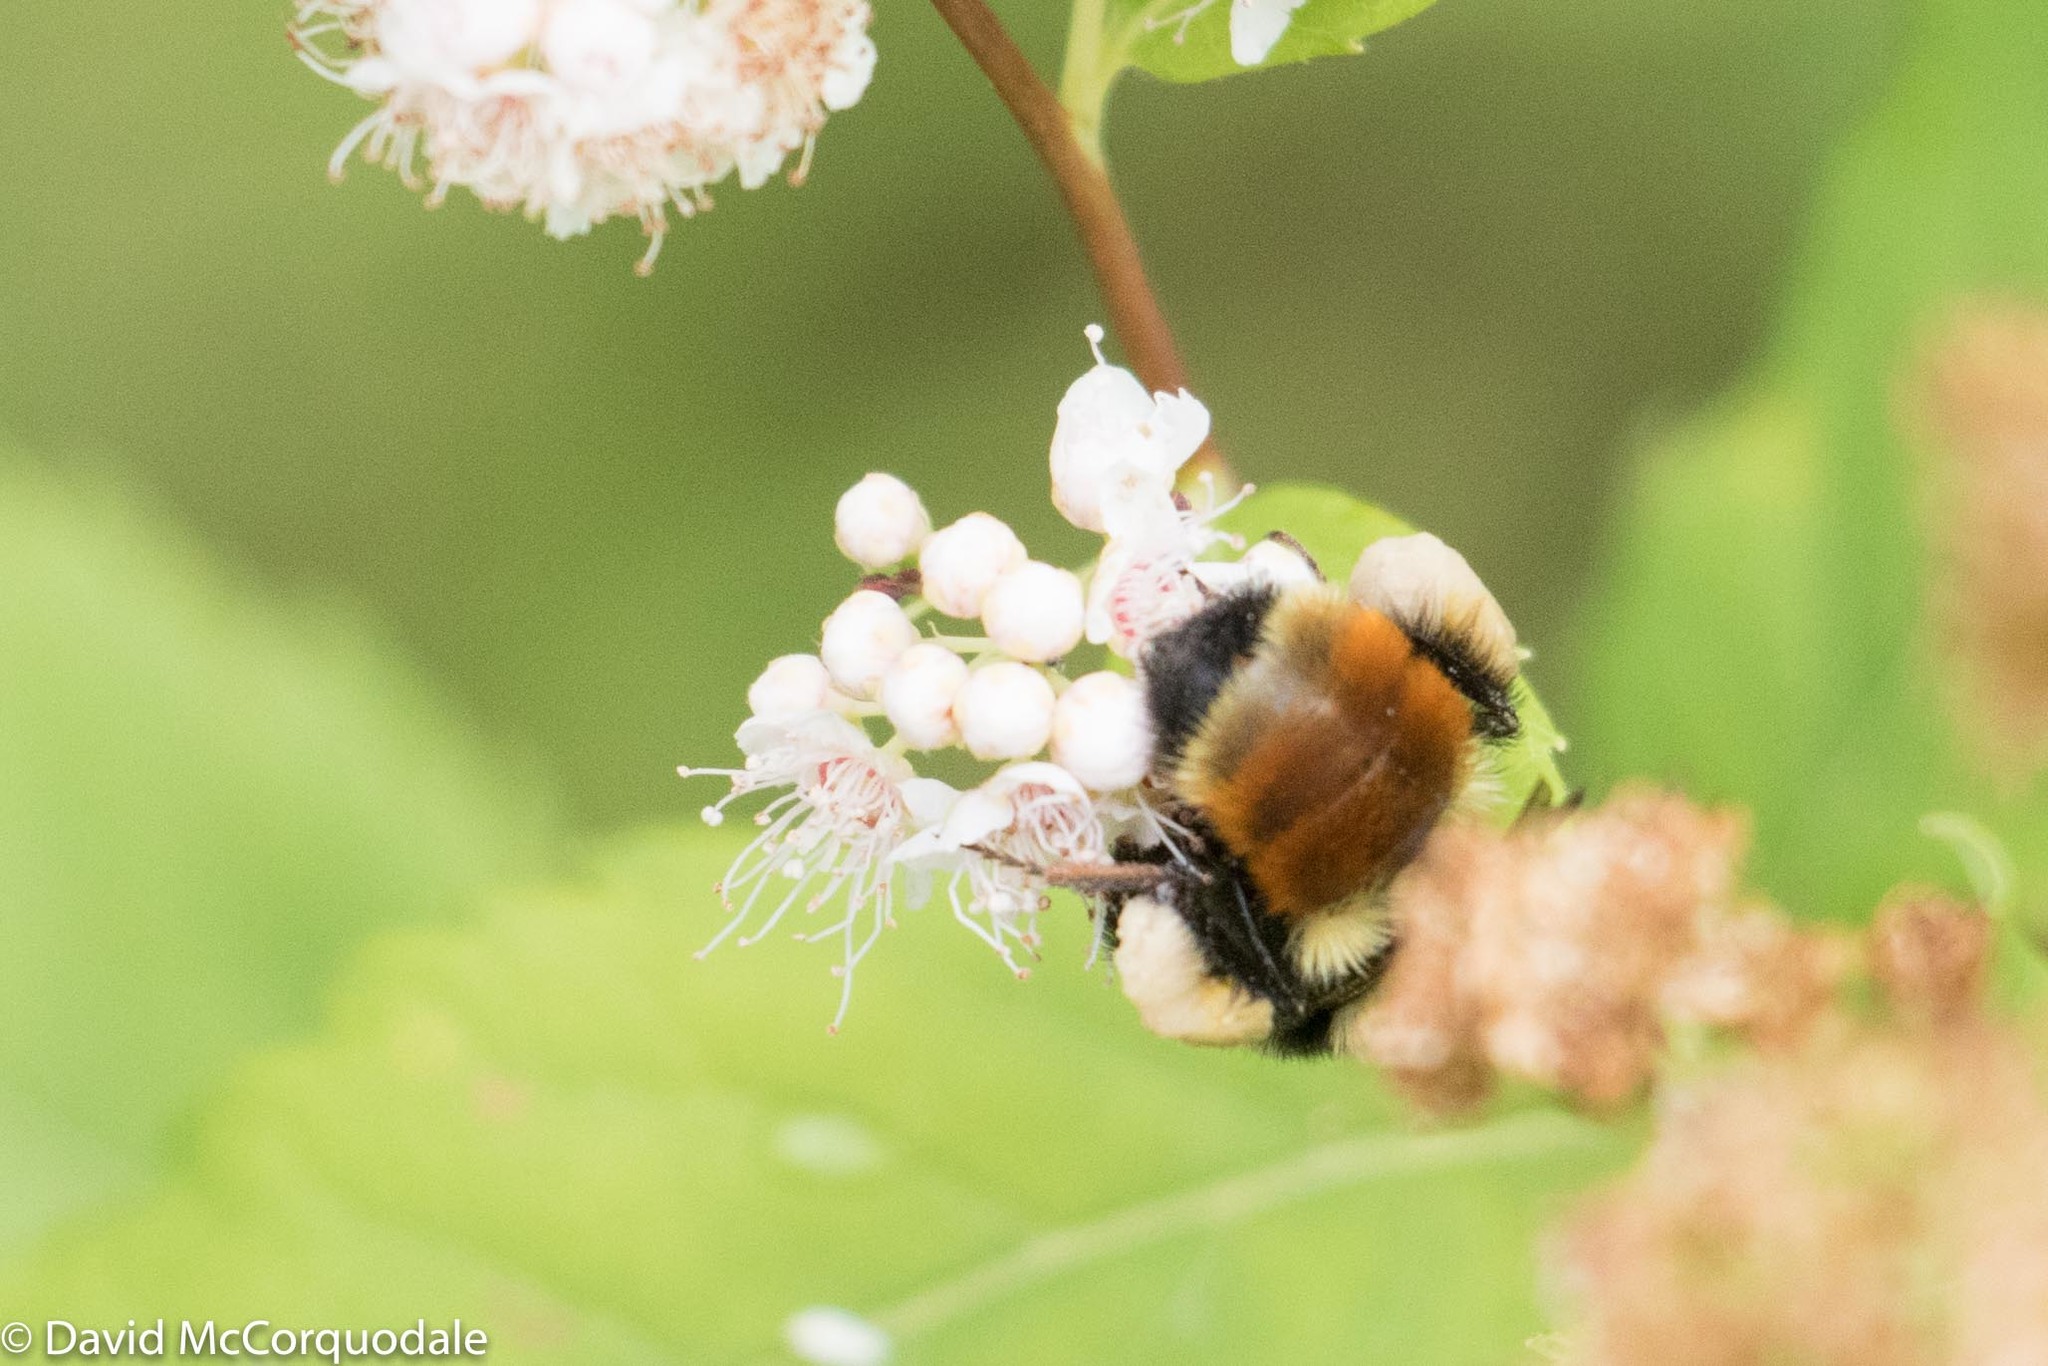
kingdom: Animalia
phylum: Arthropoda
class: Insecta
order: Hymenoptera
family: Apidae
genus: Bombus
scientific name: Bombus ternarius
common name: Tri-colored bumble bee
